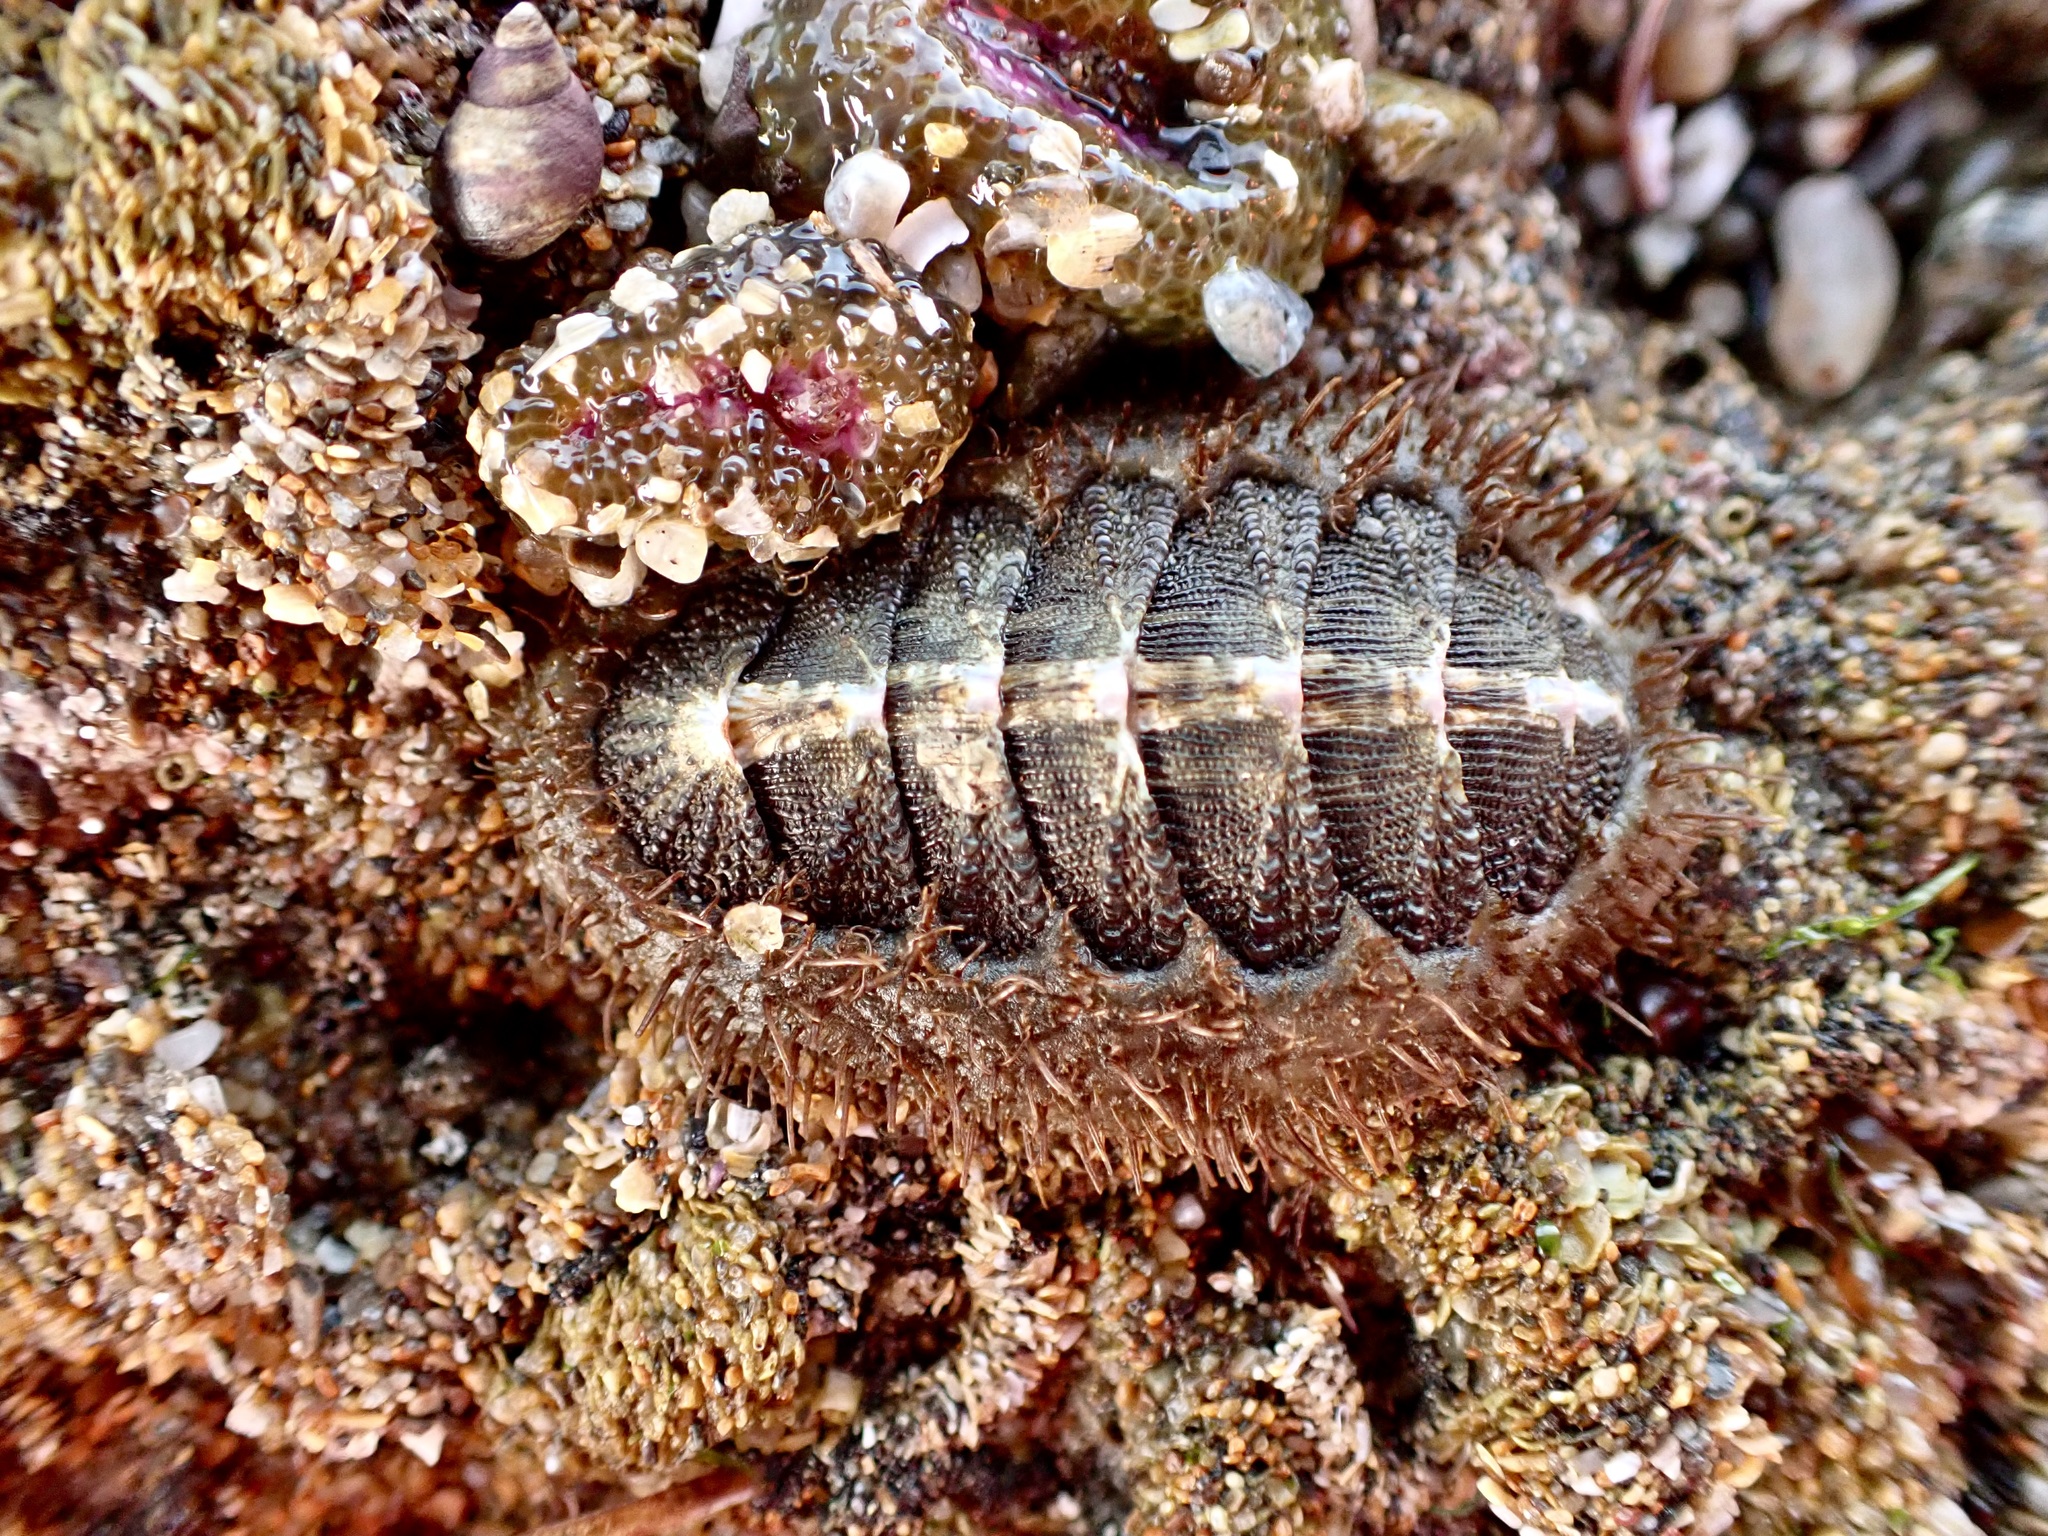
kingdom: Animalia
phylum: Mollusca
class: Polyplacophora
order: Chitonida
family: Mopaliidae
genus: Mopalia
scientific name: Mopalia muscosa
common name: Mossy chiton
